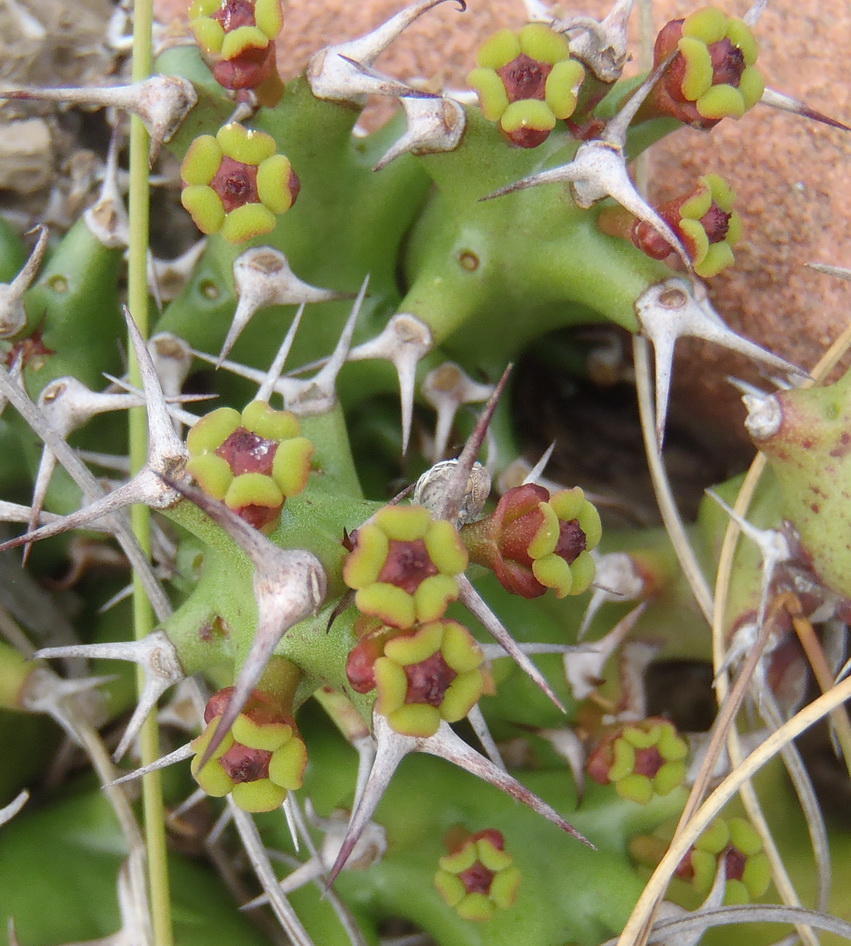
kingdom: Plantae
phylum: Tracheophyta
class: Magnoliopsida
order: Malpighiales
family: Euphorbiaceae
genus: Euphorbia
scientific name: Euphorbia stellata
